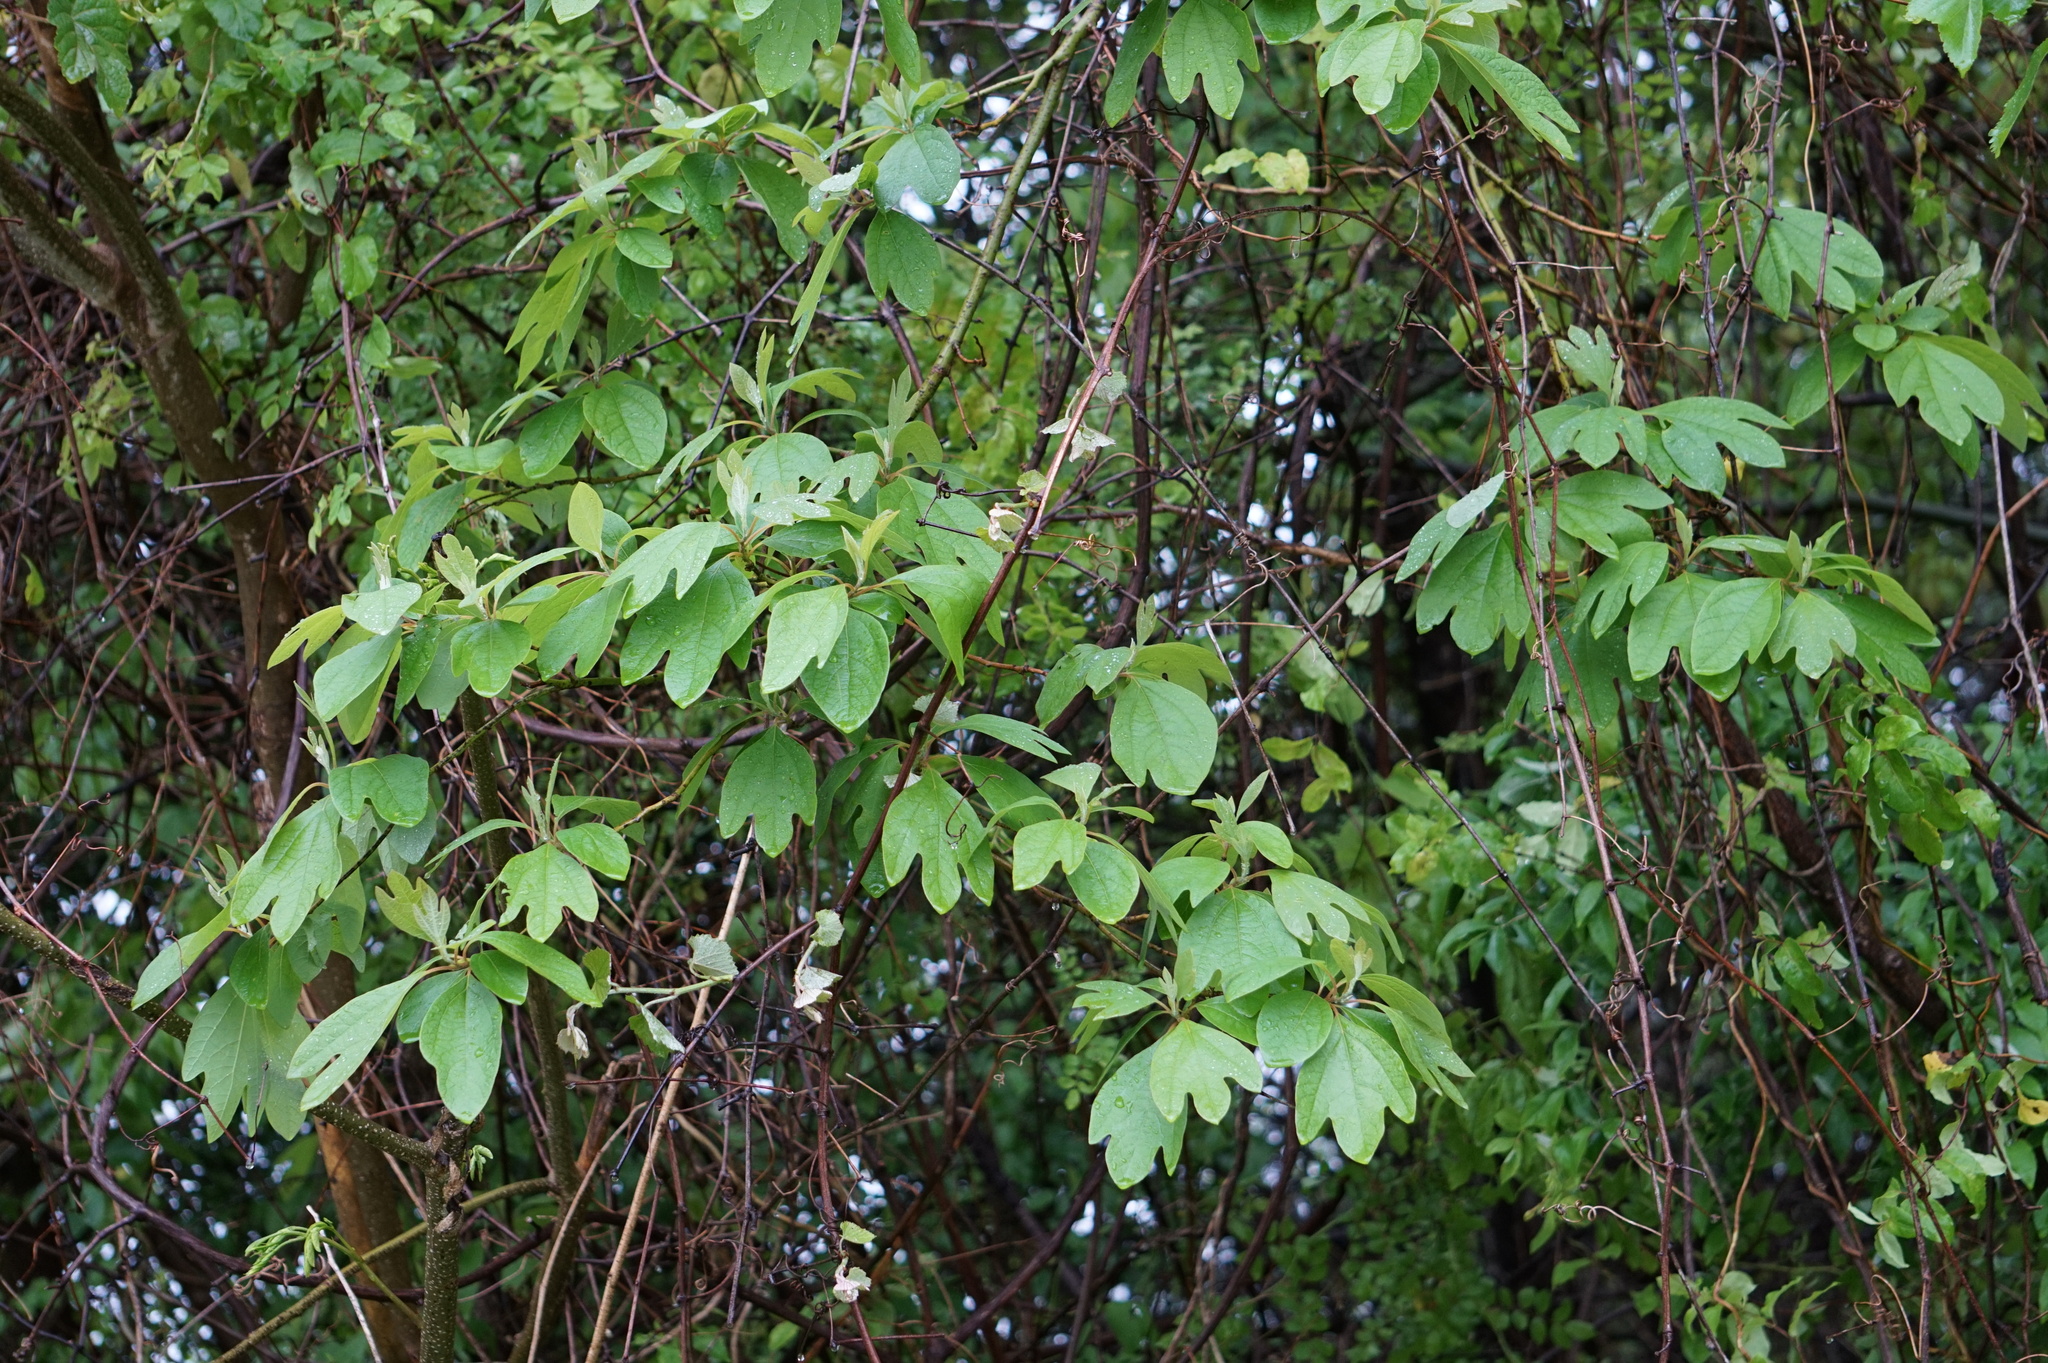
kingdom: Plantae
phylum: Tracheophyta
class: Magnoliopsida
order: Laurales
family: Lauraceae
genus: Sassafras
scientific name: Sassafras albidum
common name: Sassafras
